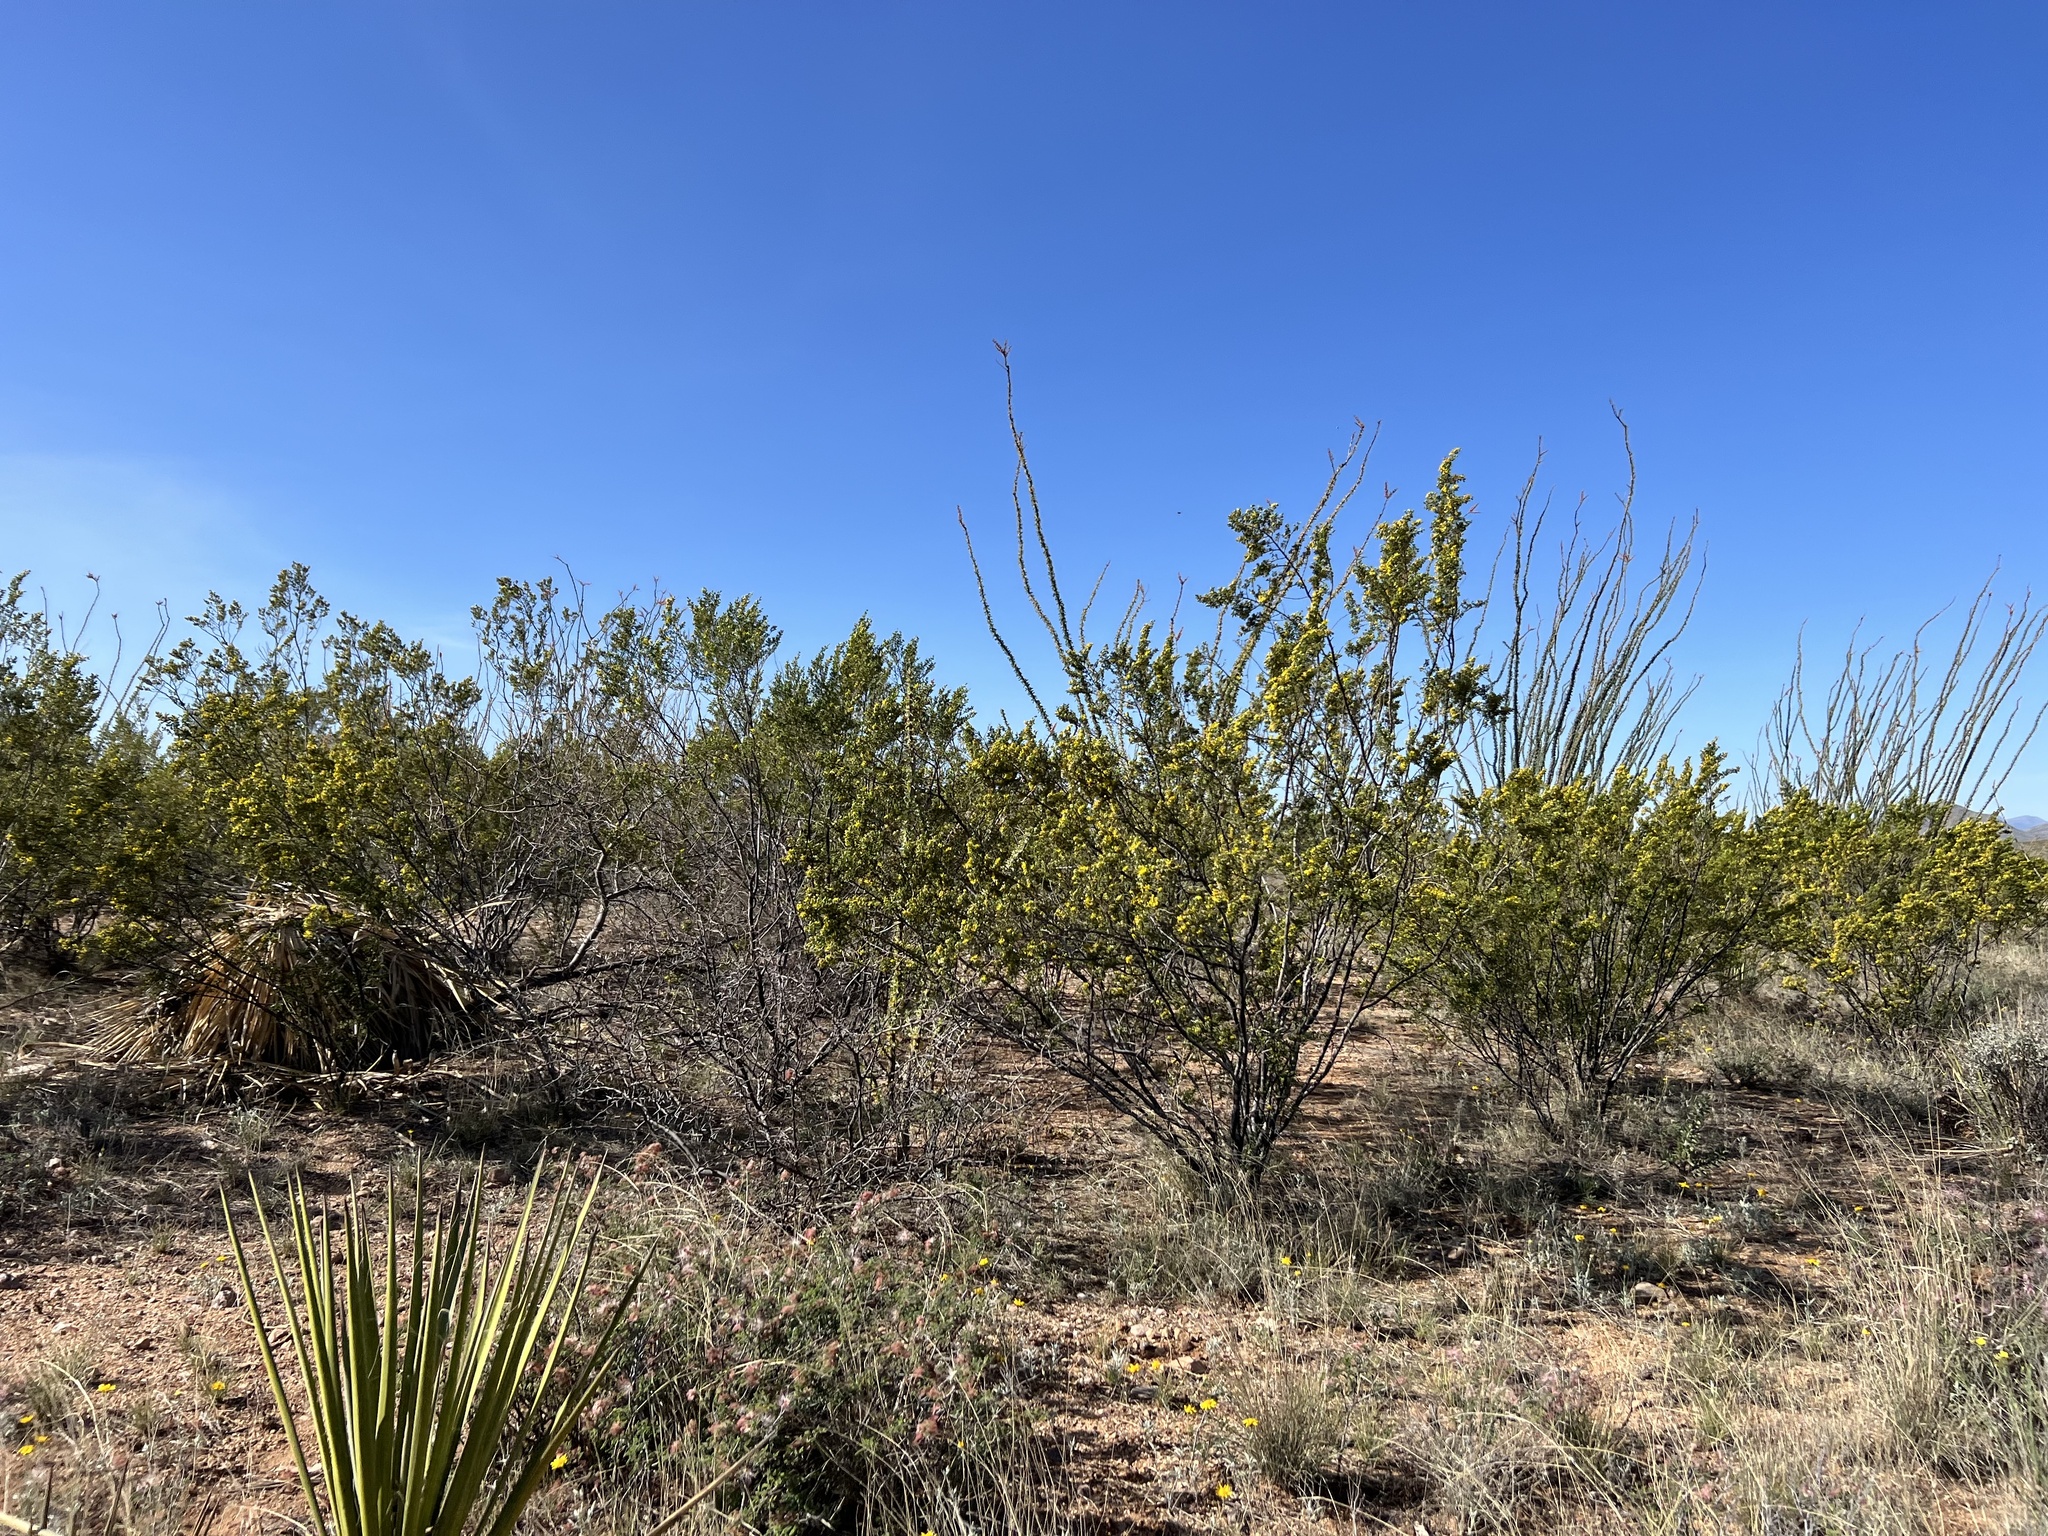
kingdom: Plantae
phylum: Tracheophyta
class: Magnoliopsida
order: Zygophyllales
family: Zygophyllaceae
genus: Larrea
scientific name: Larrea tridentata
